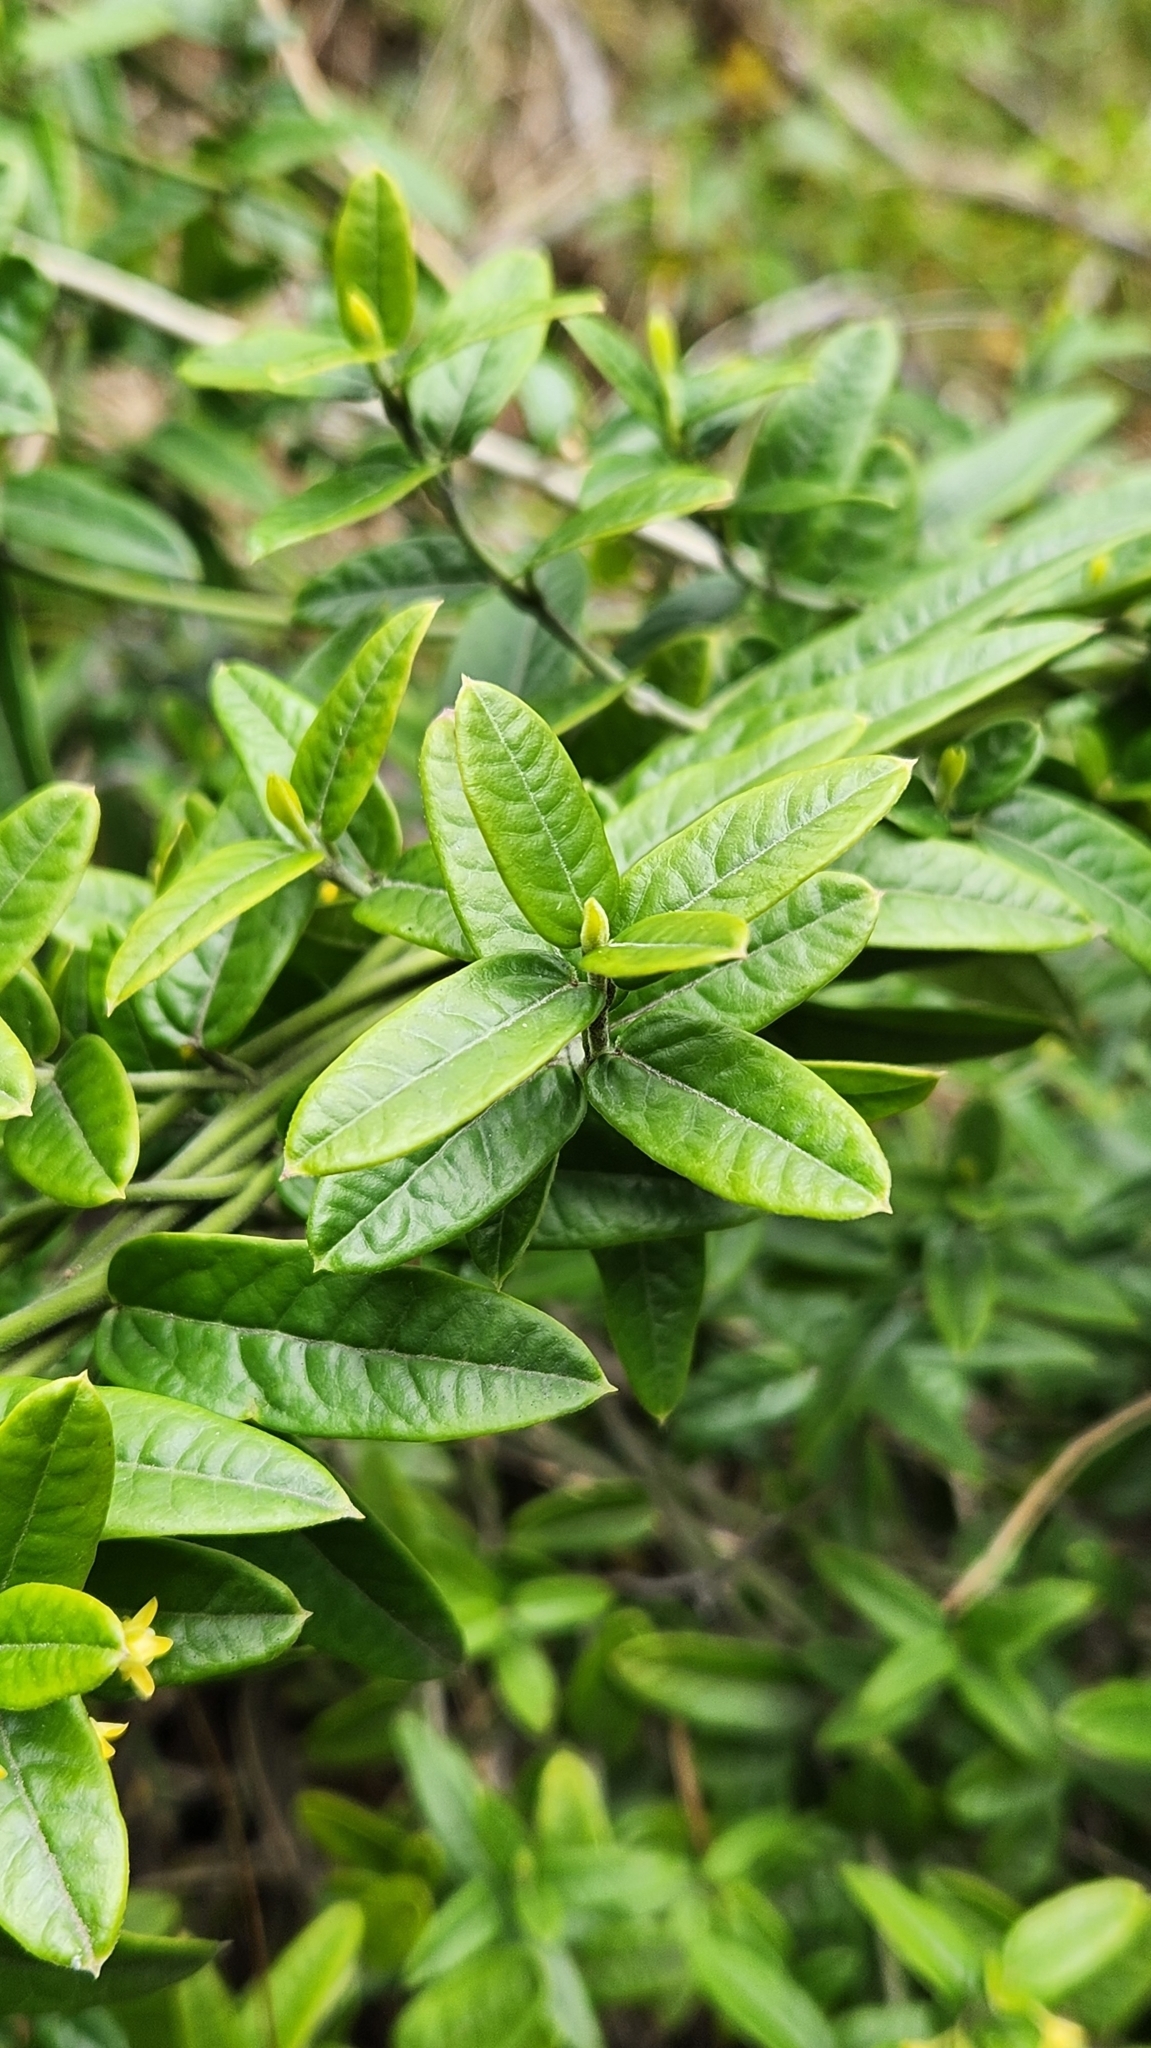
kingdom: Plantae
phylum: Tracheophyta
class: Magnoliopsida
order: Gentianales
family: Apocynaceae
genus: Diplolepis
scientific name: Diplolepis diemii
